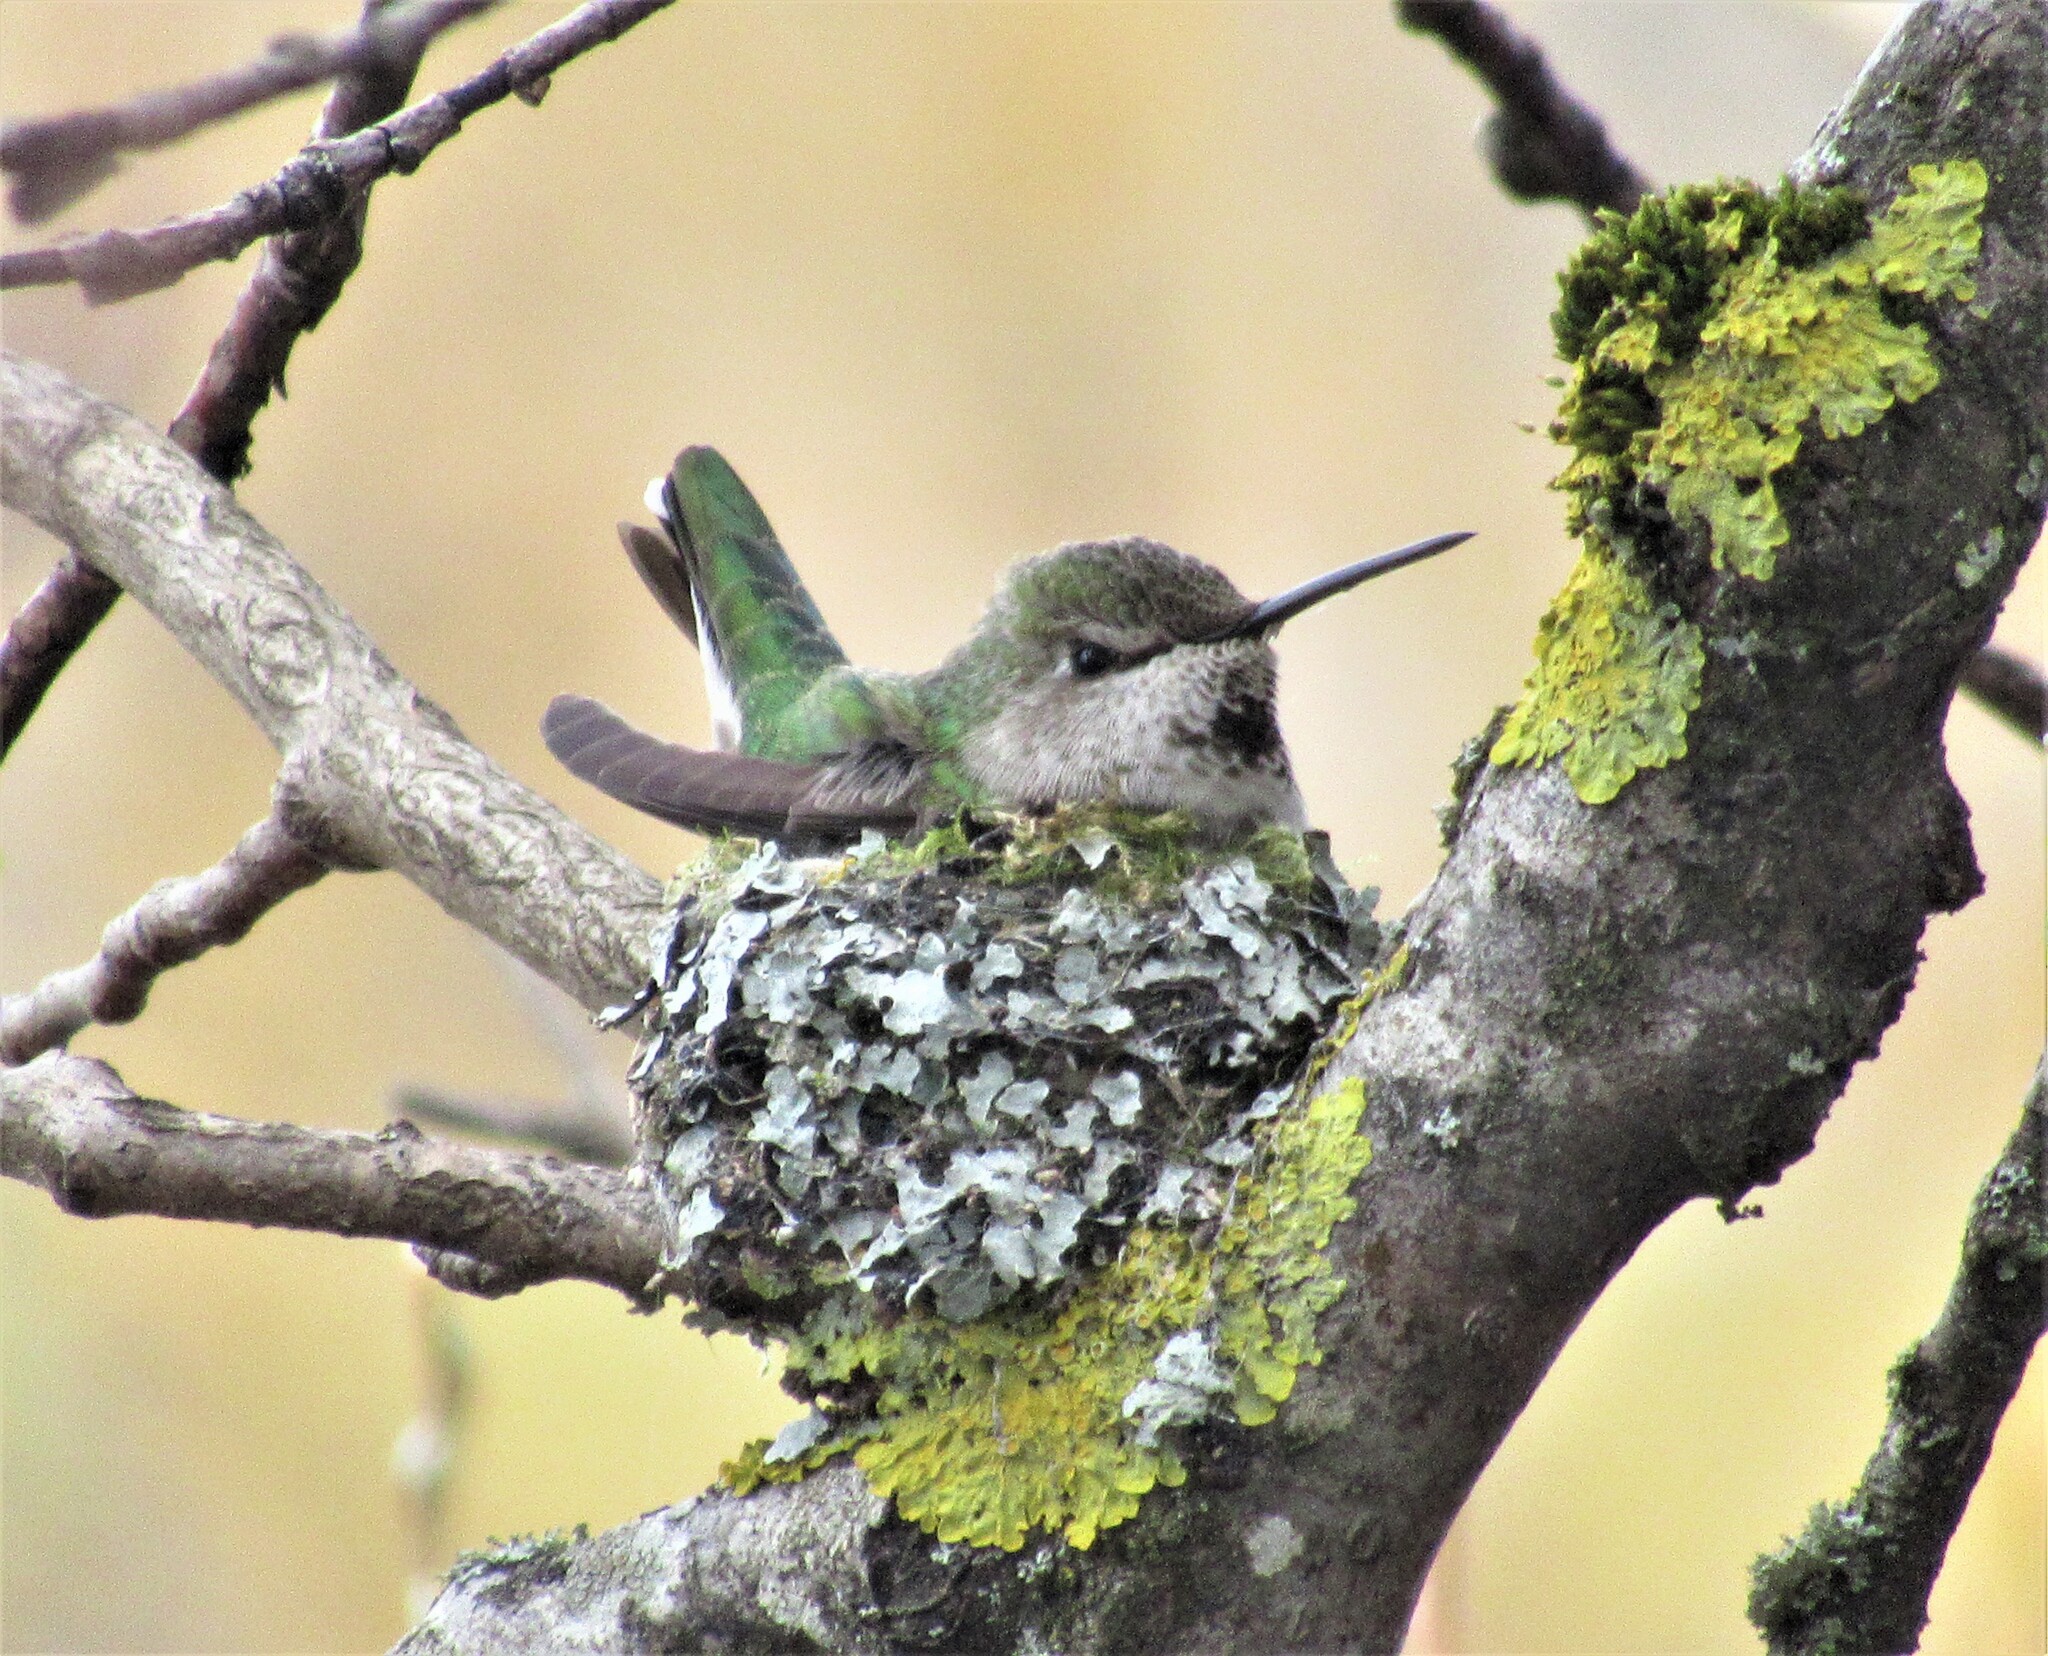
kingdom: Animalia
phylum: Chordata
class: Aves
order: Apodiformes
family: Trochilidae
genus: Calypte
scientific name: Calypte anna
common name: Anna's hummingbird
